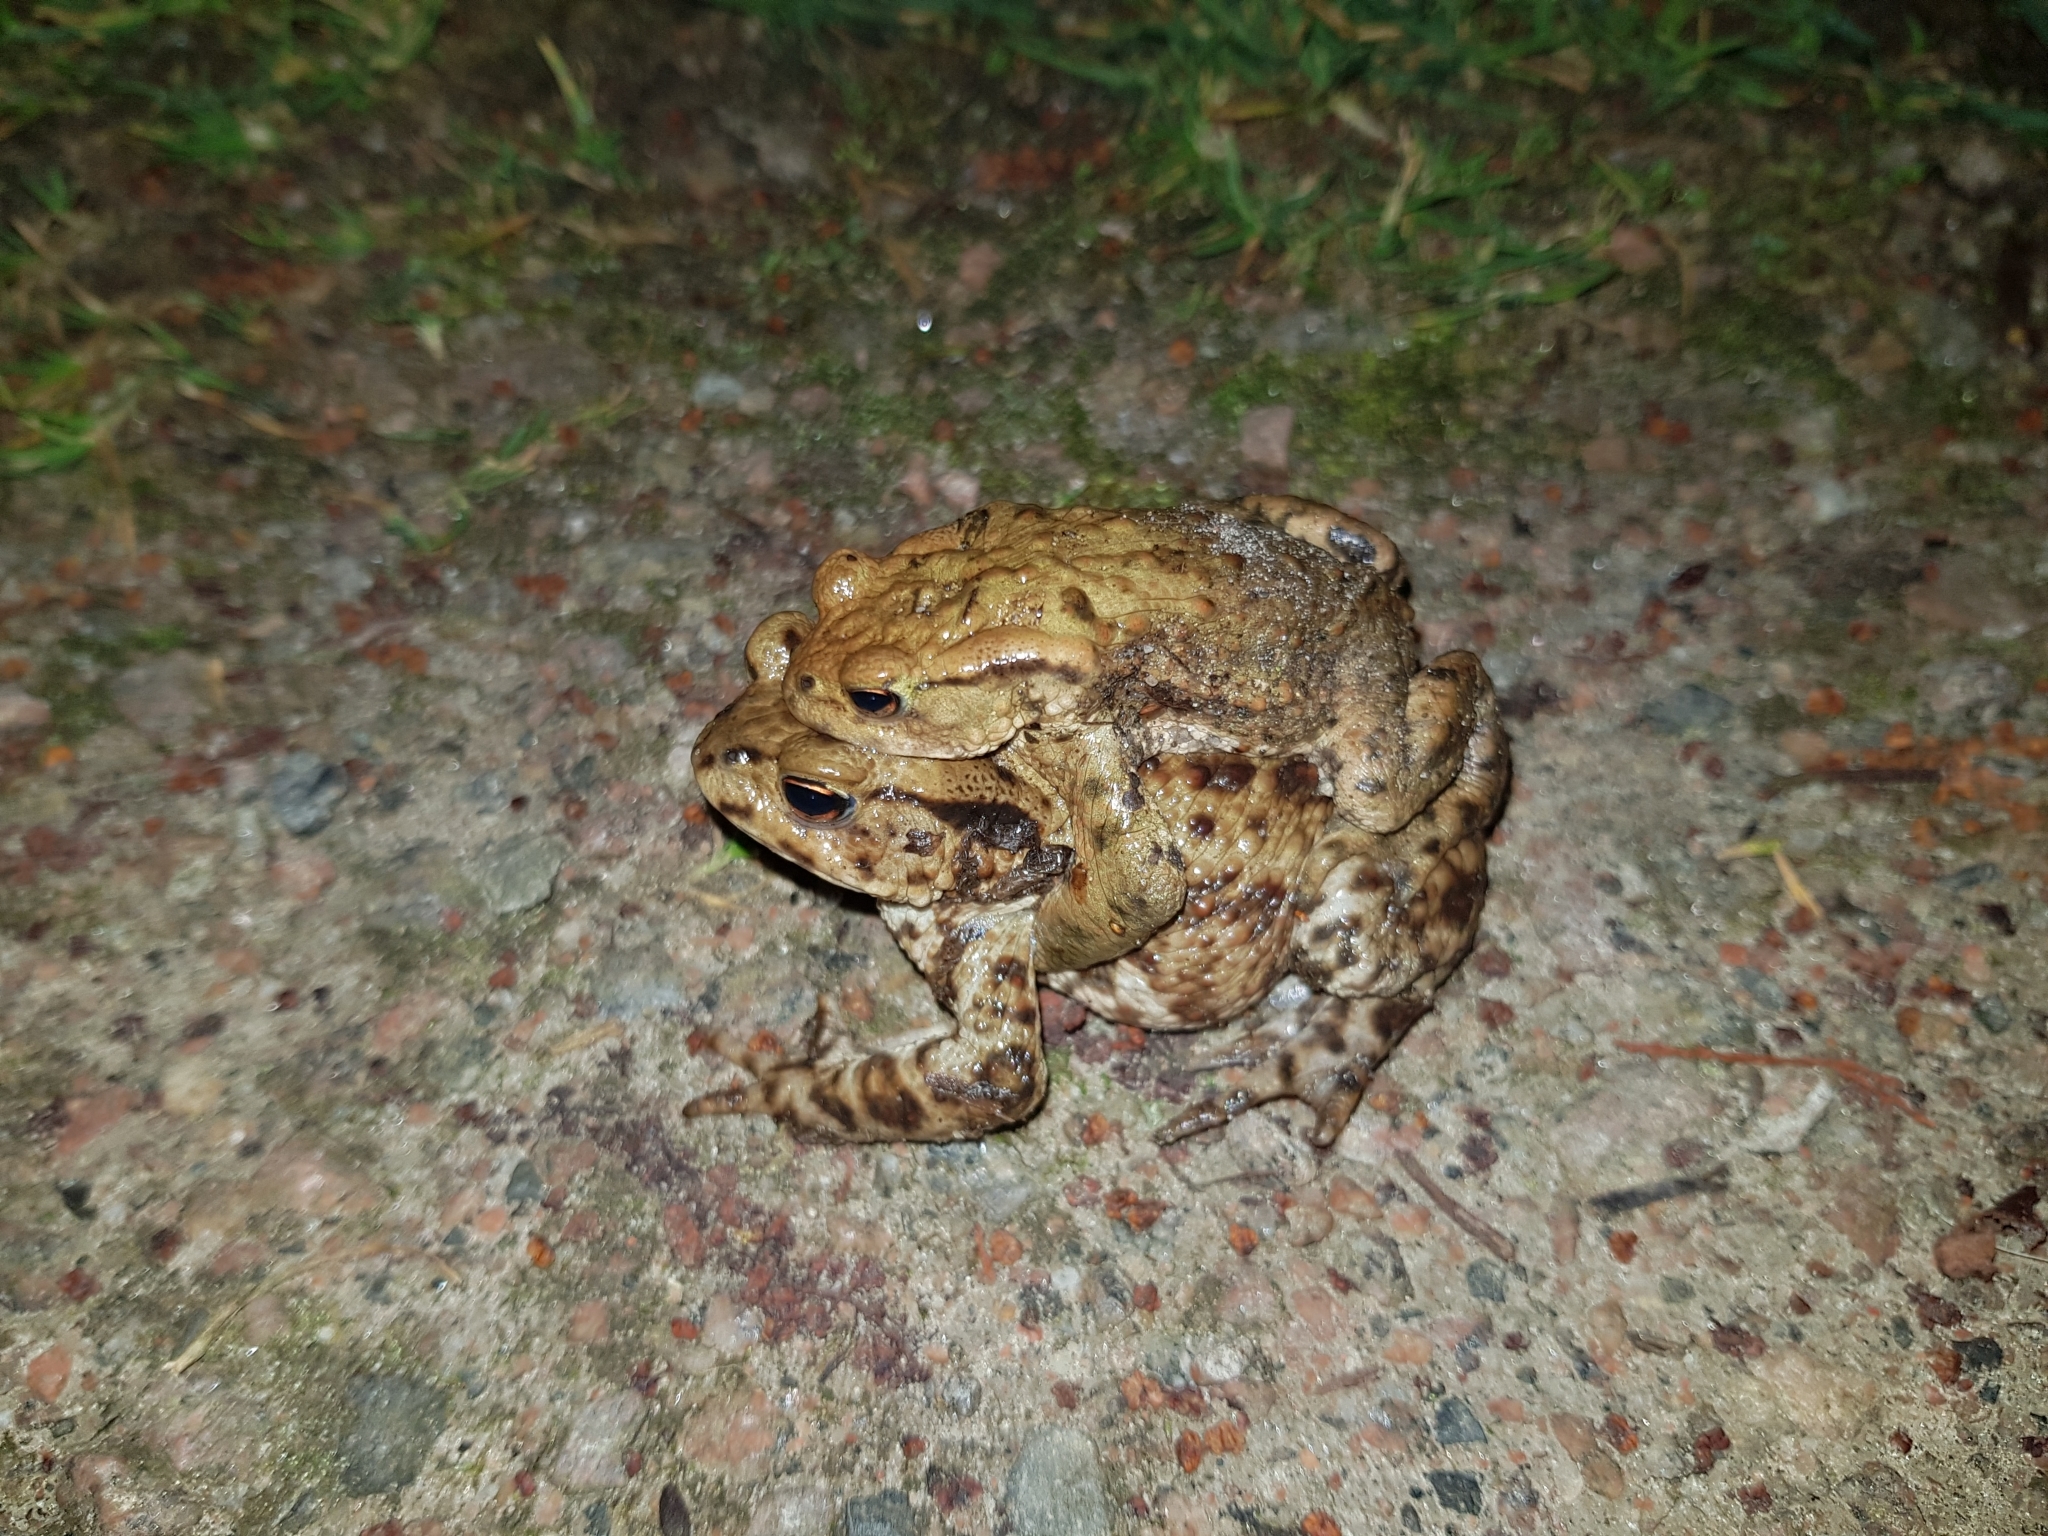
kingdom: Animalia
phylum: Chordata
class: Amphibia
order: Anura
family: Bufonidae
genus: Bufo
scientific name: Bufo bufo
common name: Common toad
